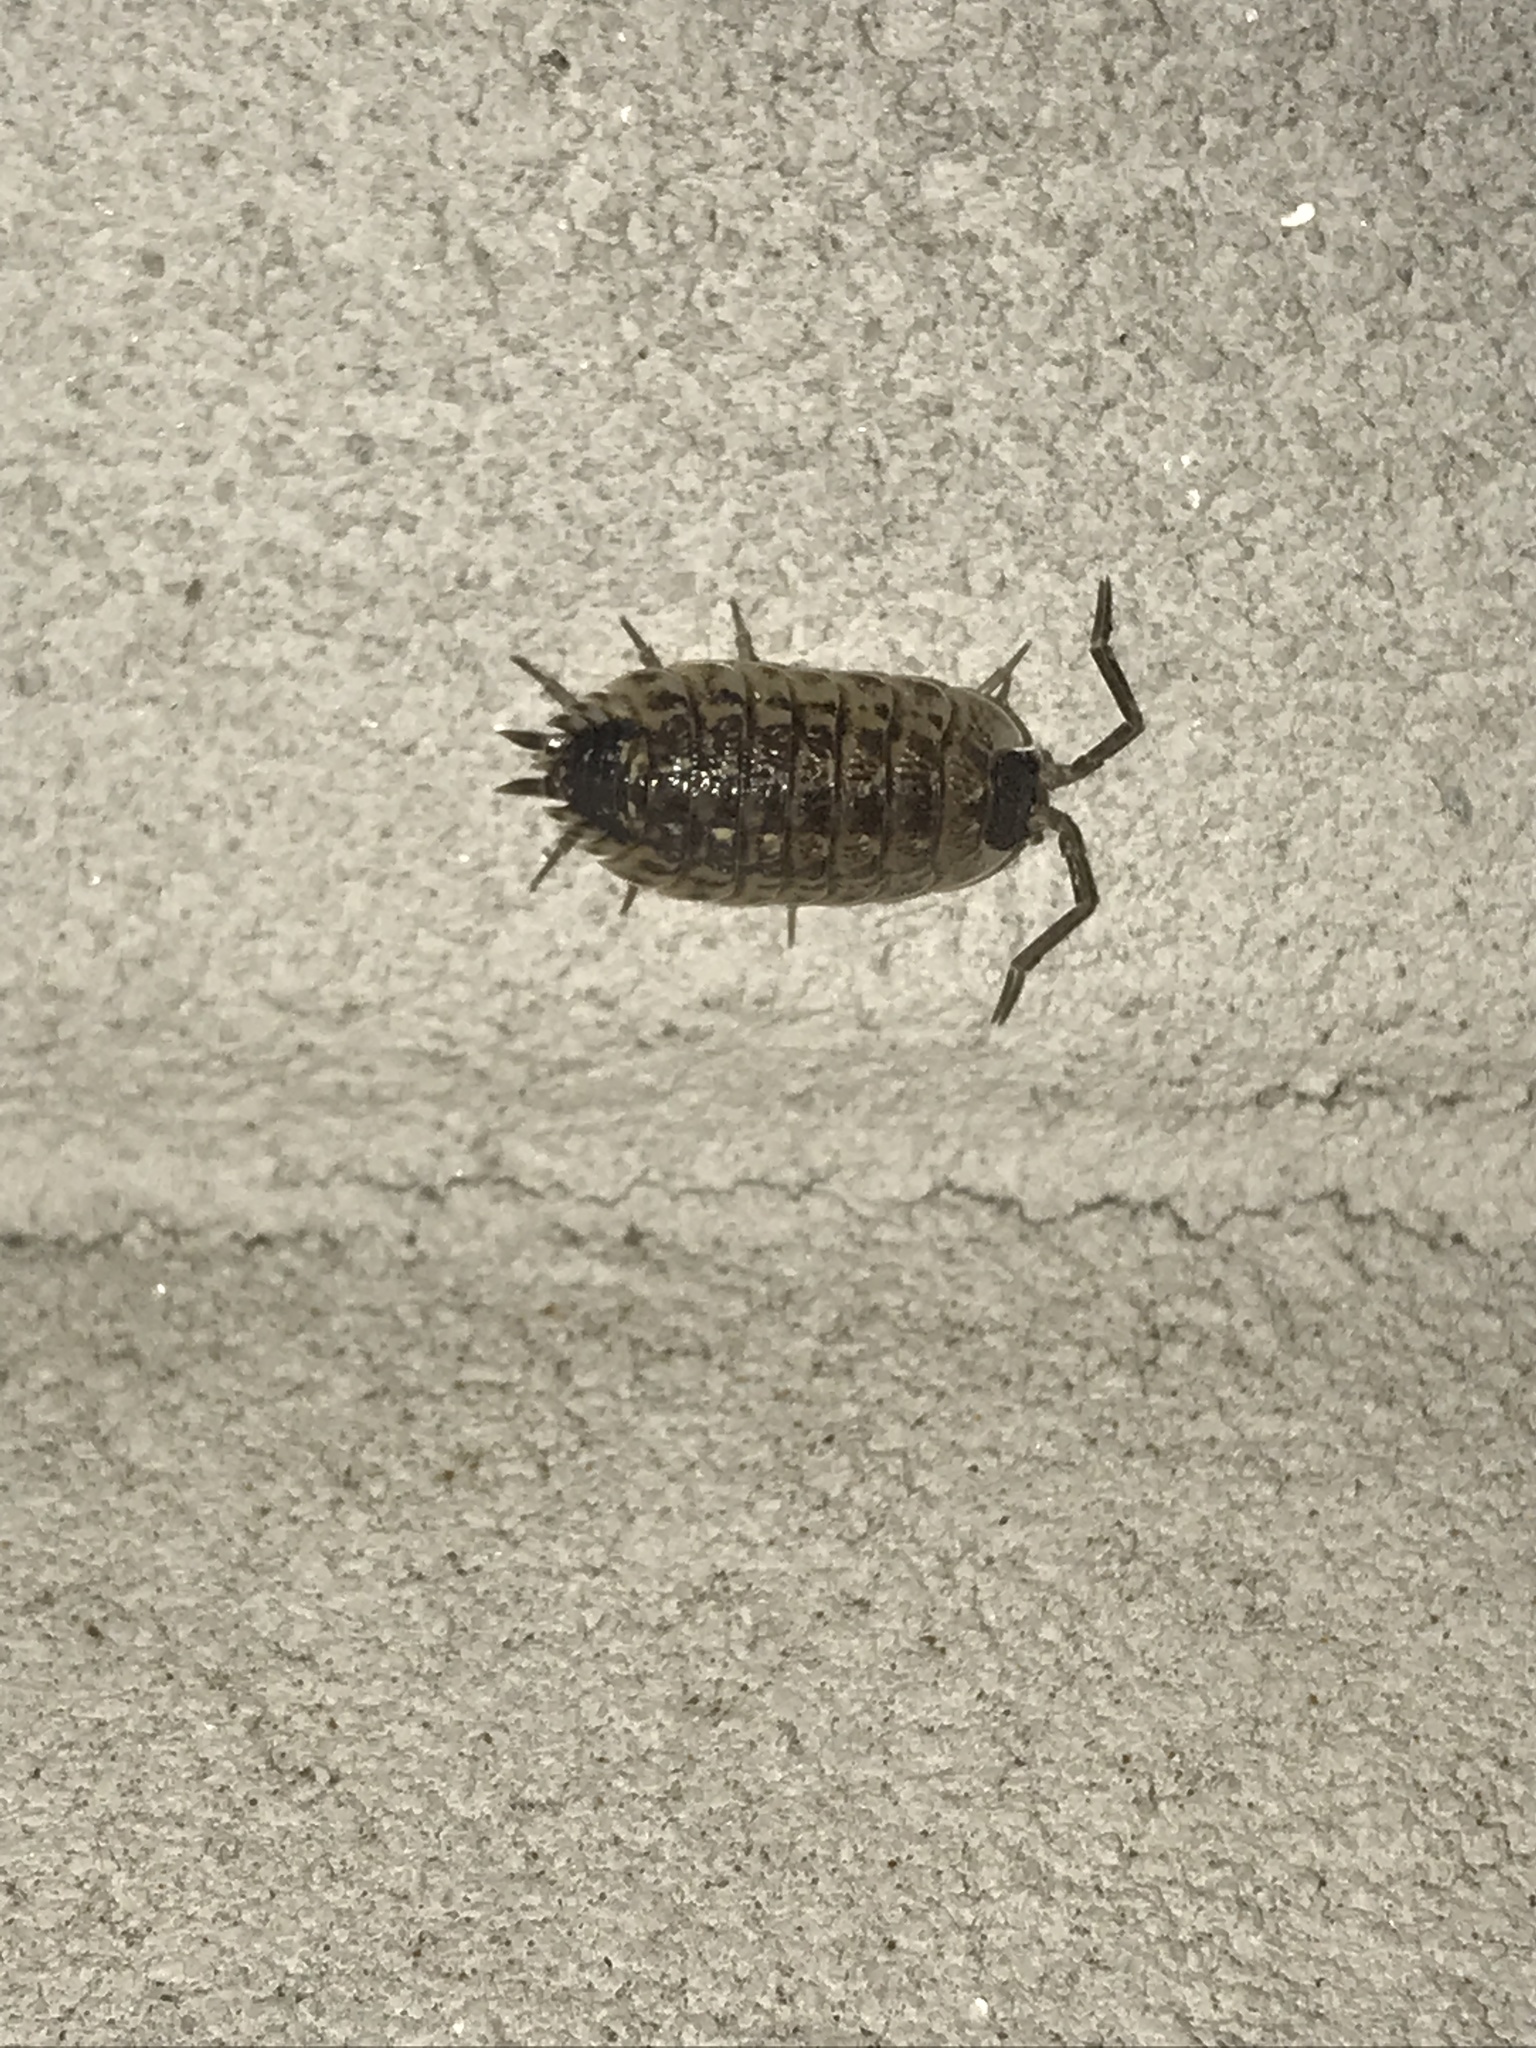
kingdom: Animalia
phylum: Arthropoda
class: Malacostraca
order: Isopoda
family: Porcellionidae
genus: Porcellio
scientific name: Porcellio spinicornis
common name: Painted woodlouse
